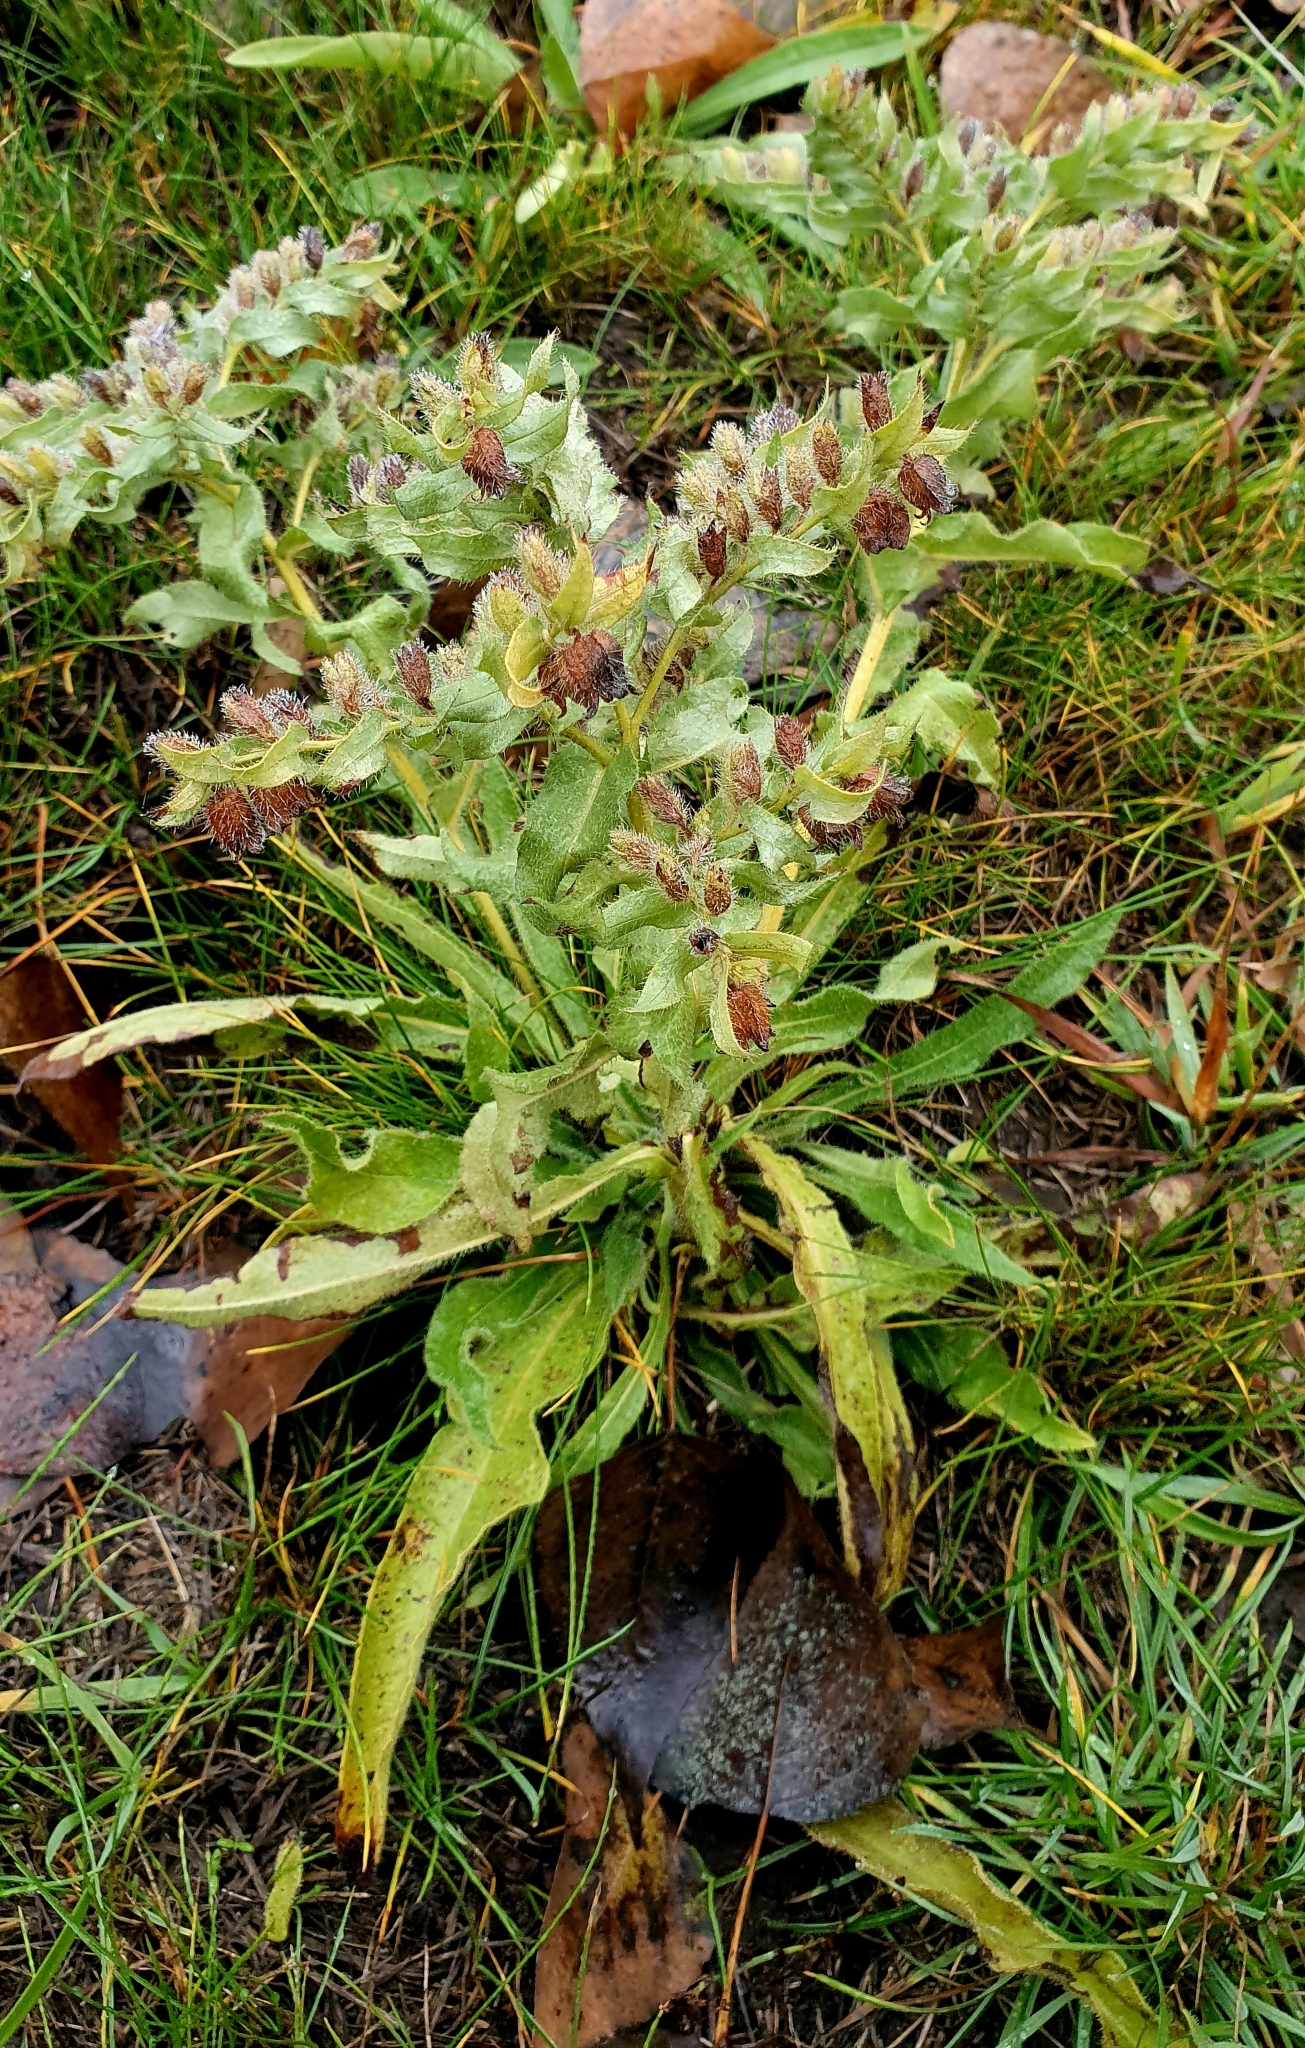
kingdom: Plantae
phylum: Tracheophyta
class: Magnoliopsida
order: Boraginales
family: Boraginaceae
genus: Nonea
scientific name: Nonea pulla
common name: Brown nonea
